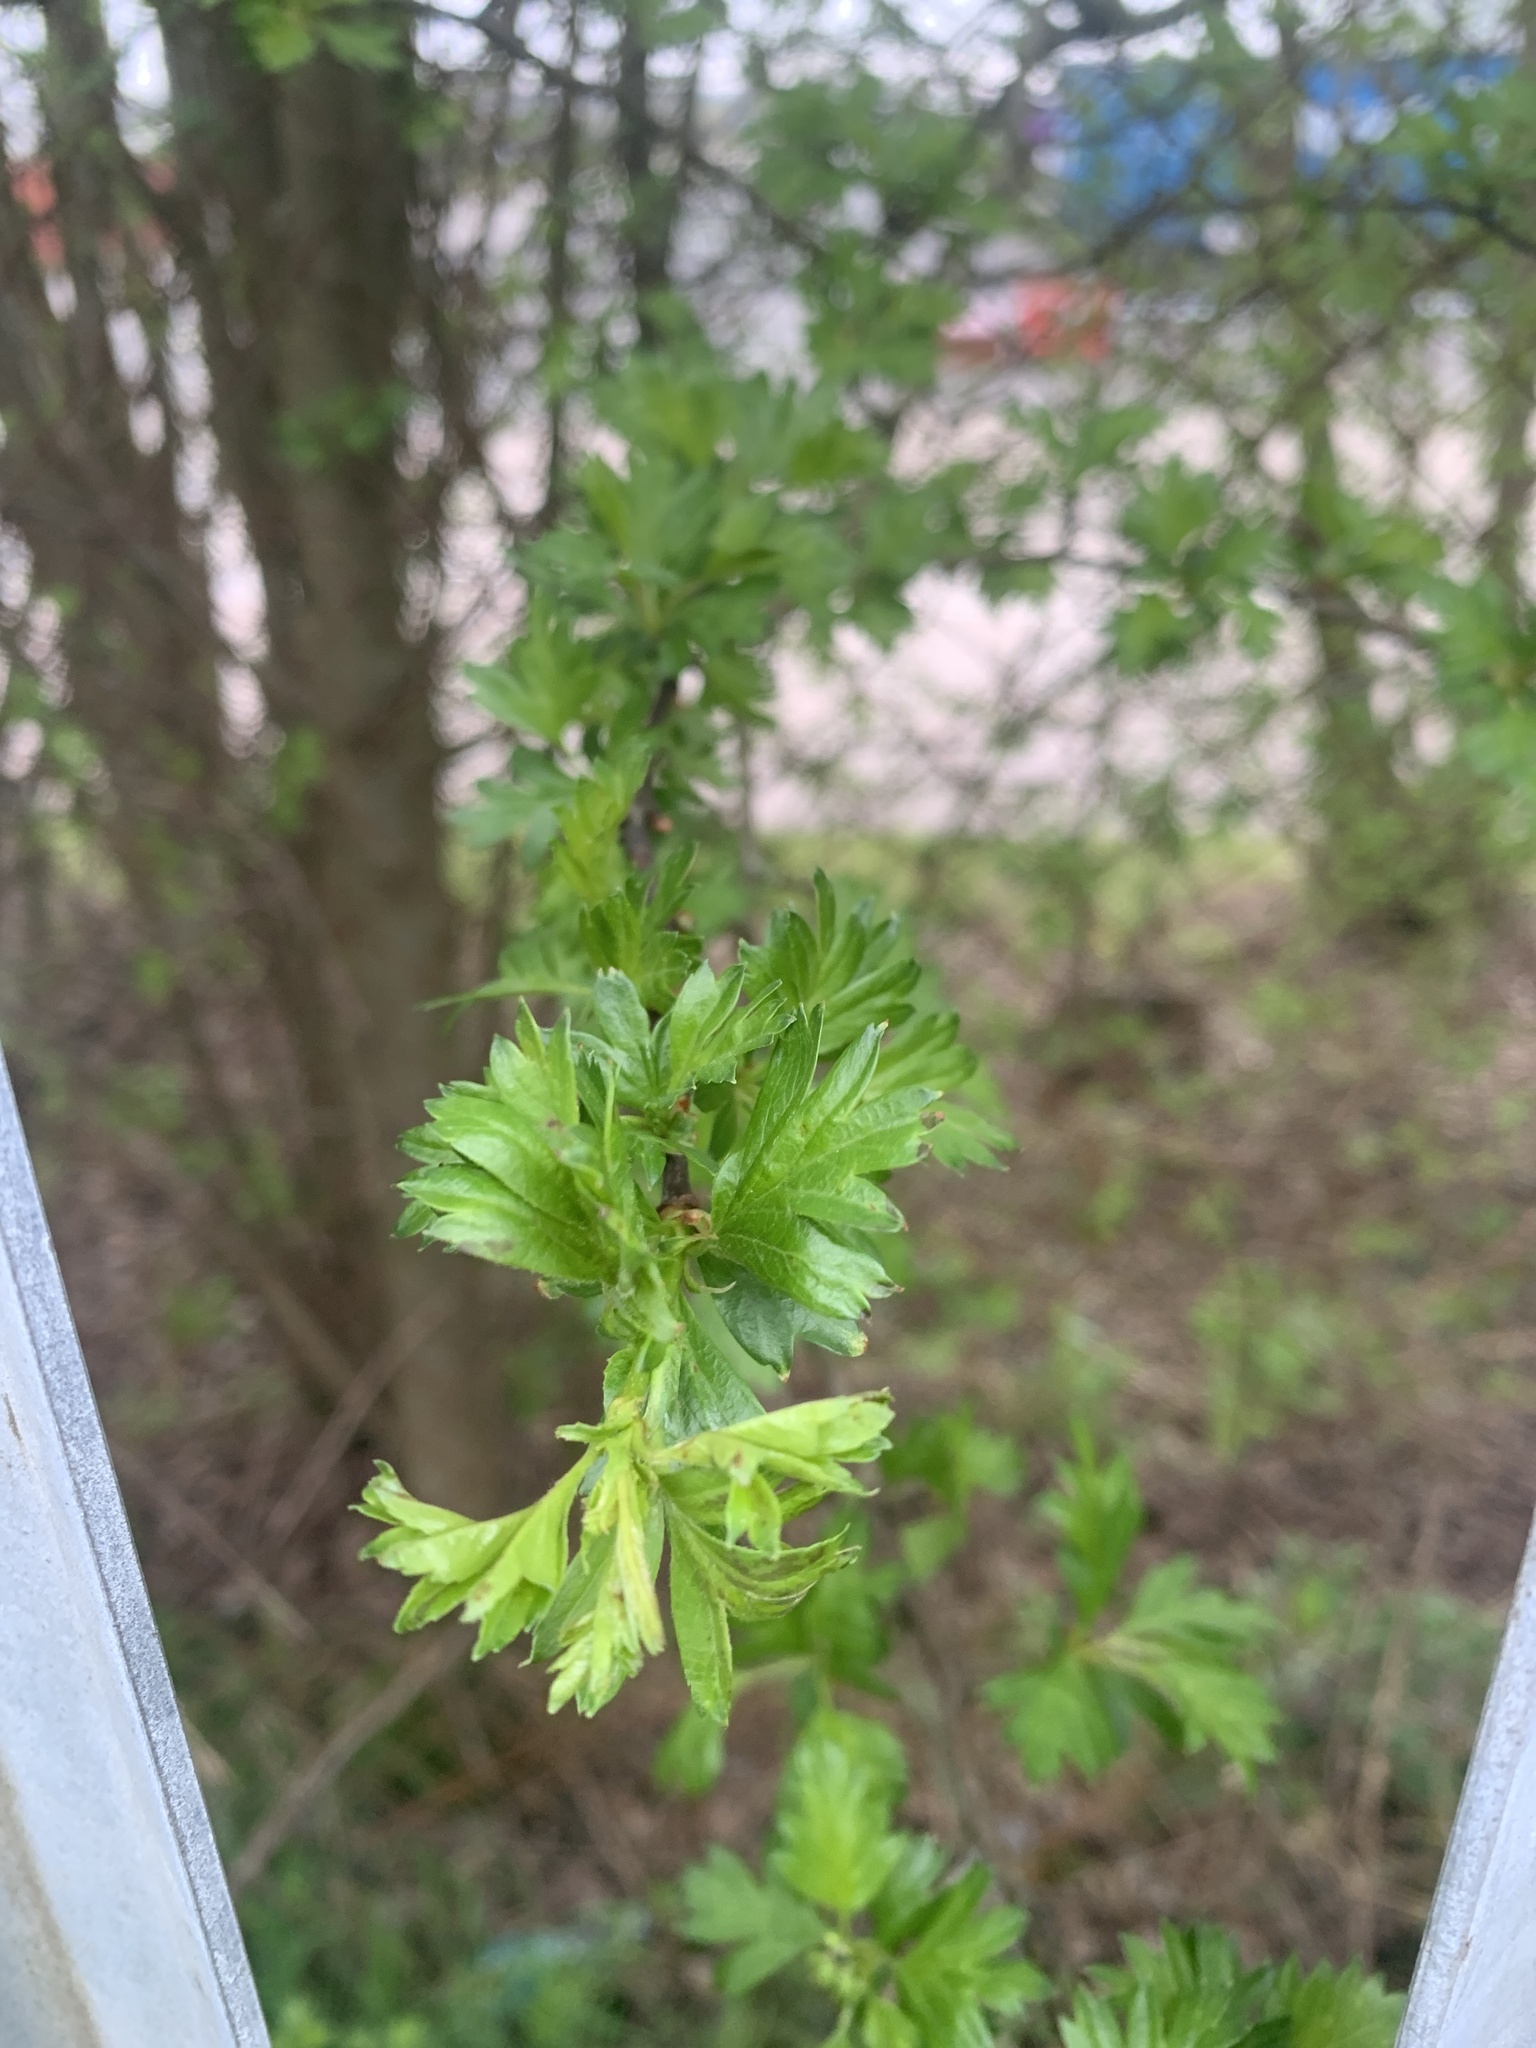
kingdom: Plantae
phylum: Tracheophyta
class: Magnoliopsida
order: Rosales
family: Rosaceae
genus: Crataegus
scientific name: Crataegus monogyna
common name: Hawthorn
